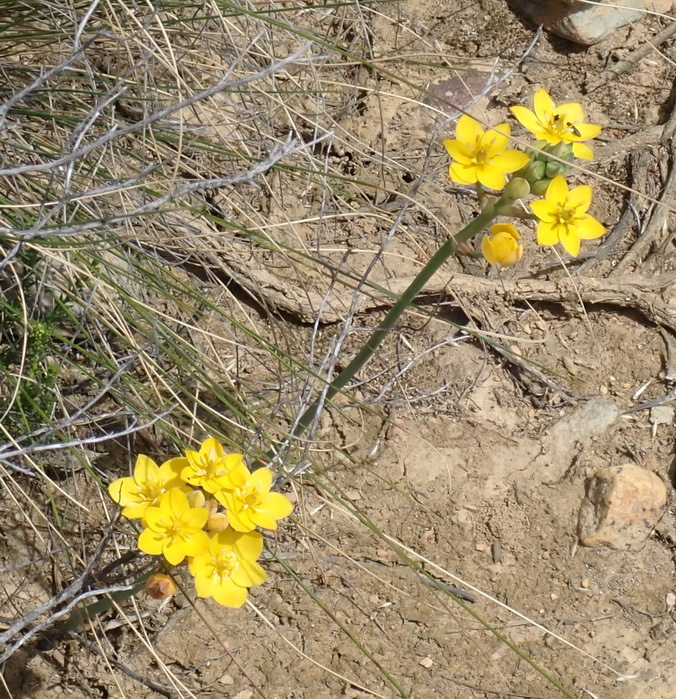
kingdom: Plantae
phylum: Tracheophyta
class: Liliopsida
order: Asparagales
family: Asparagaceae
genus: Ornithogalum
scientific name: Ornithogalum dubium
